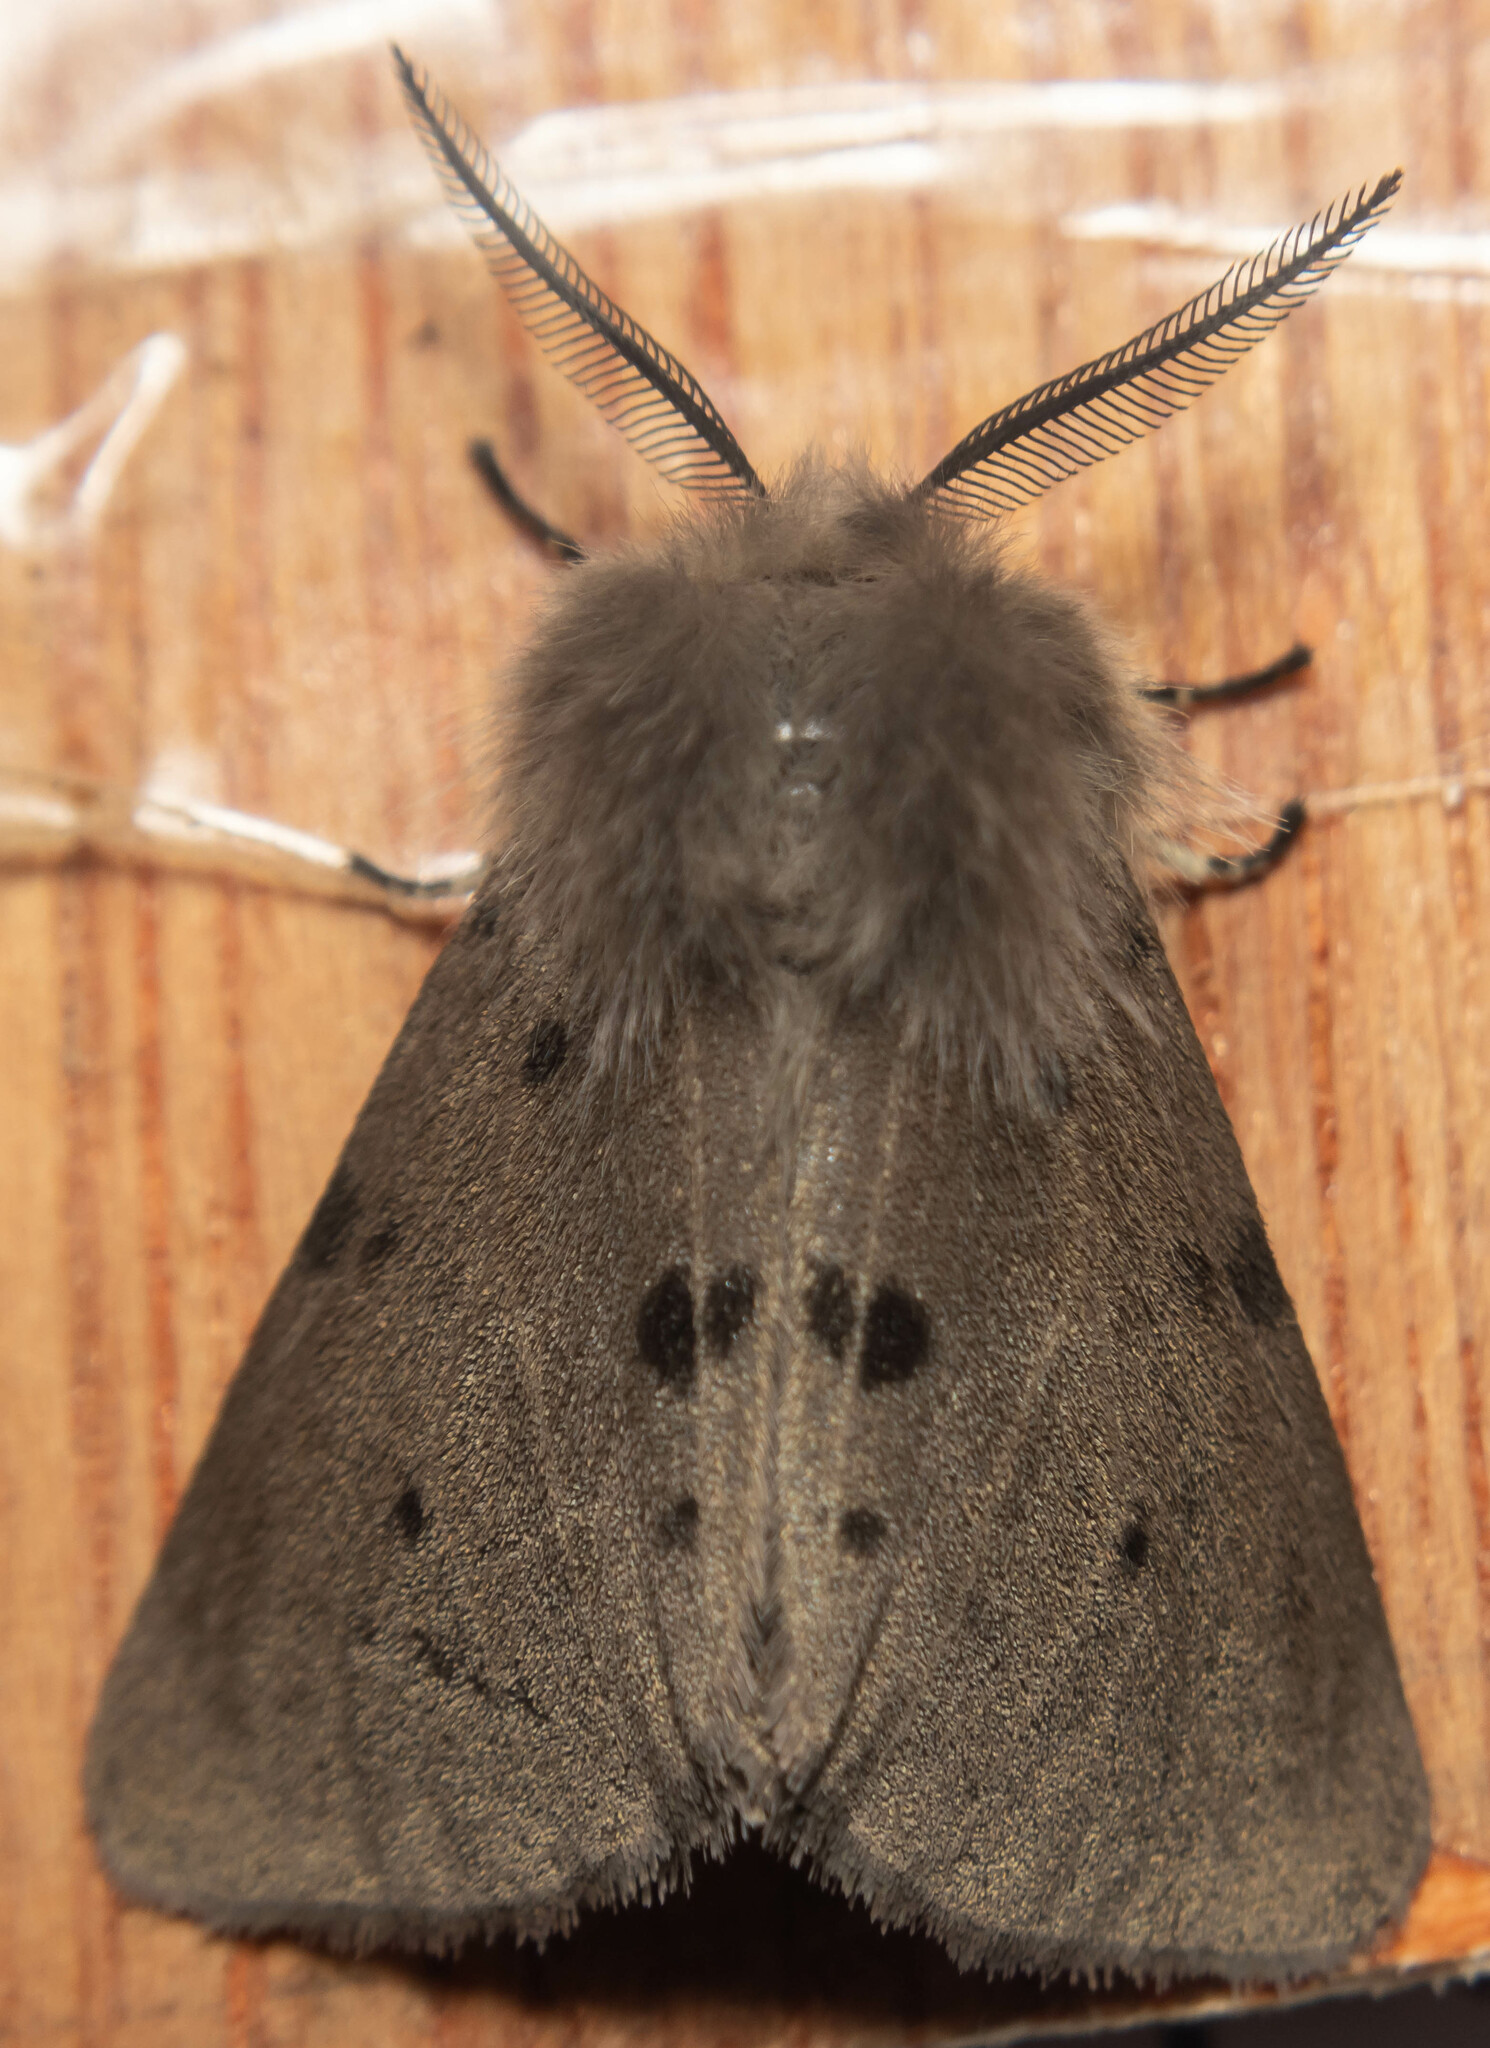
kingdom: Animalia
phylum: Arthropoda
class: Insecta
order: Lepidoptera
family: Erebidae
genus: Diaphora
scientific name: Diaphora mendica
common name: Muslin moth
